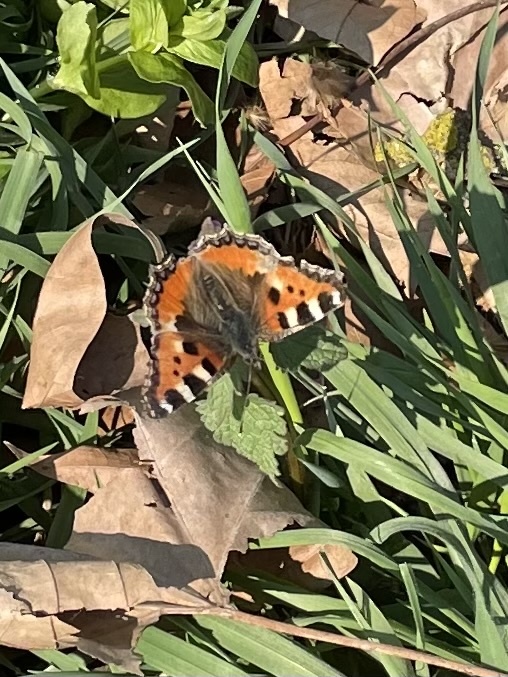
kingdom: Animalia
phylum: Arthropoda
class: Insecta
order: Lepidoptera
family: Nymphalidae
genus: Aglais
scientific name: Aglais urticae
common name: Small tortoiseshell
